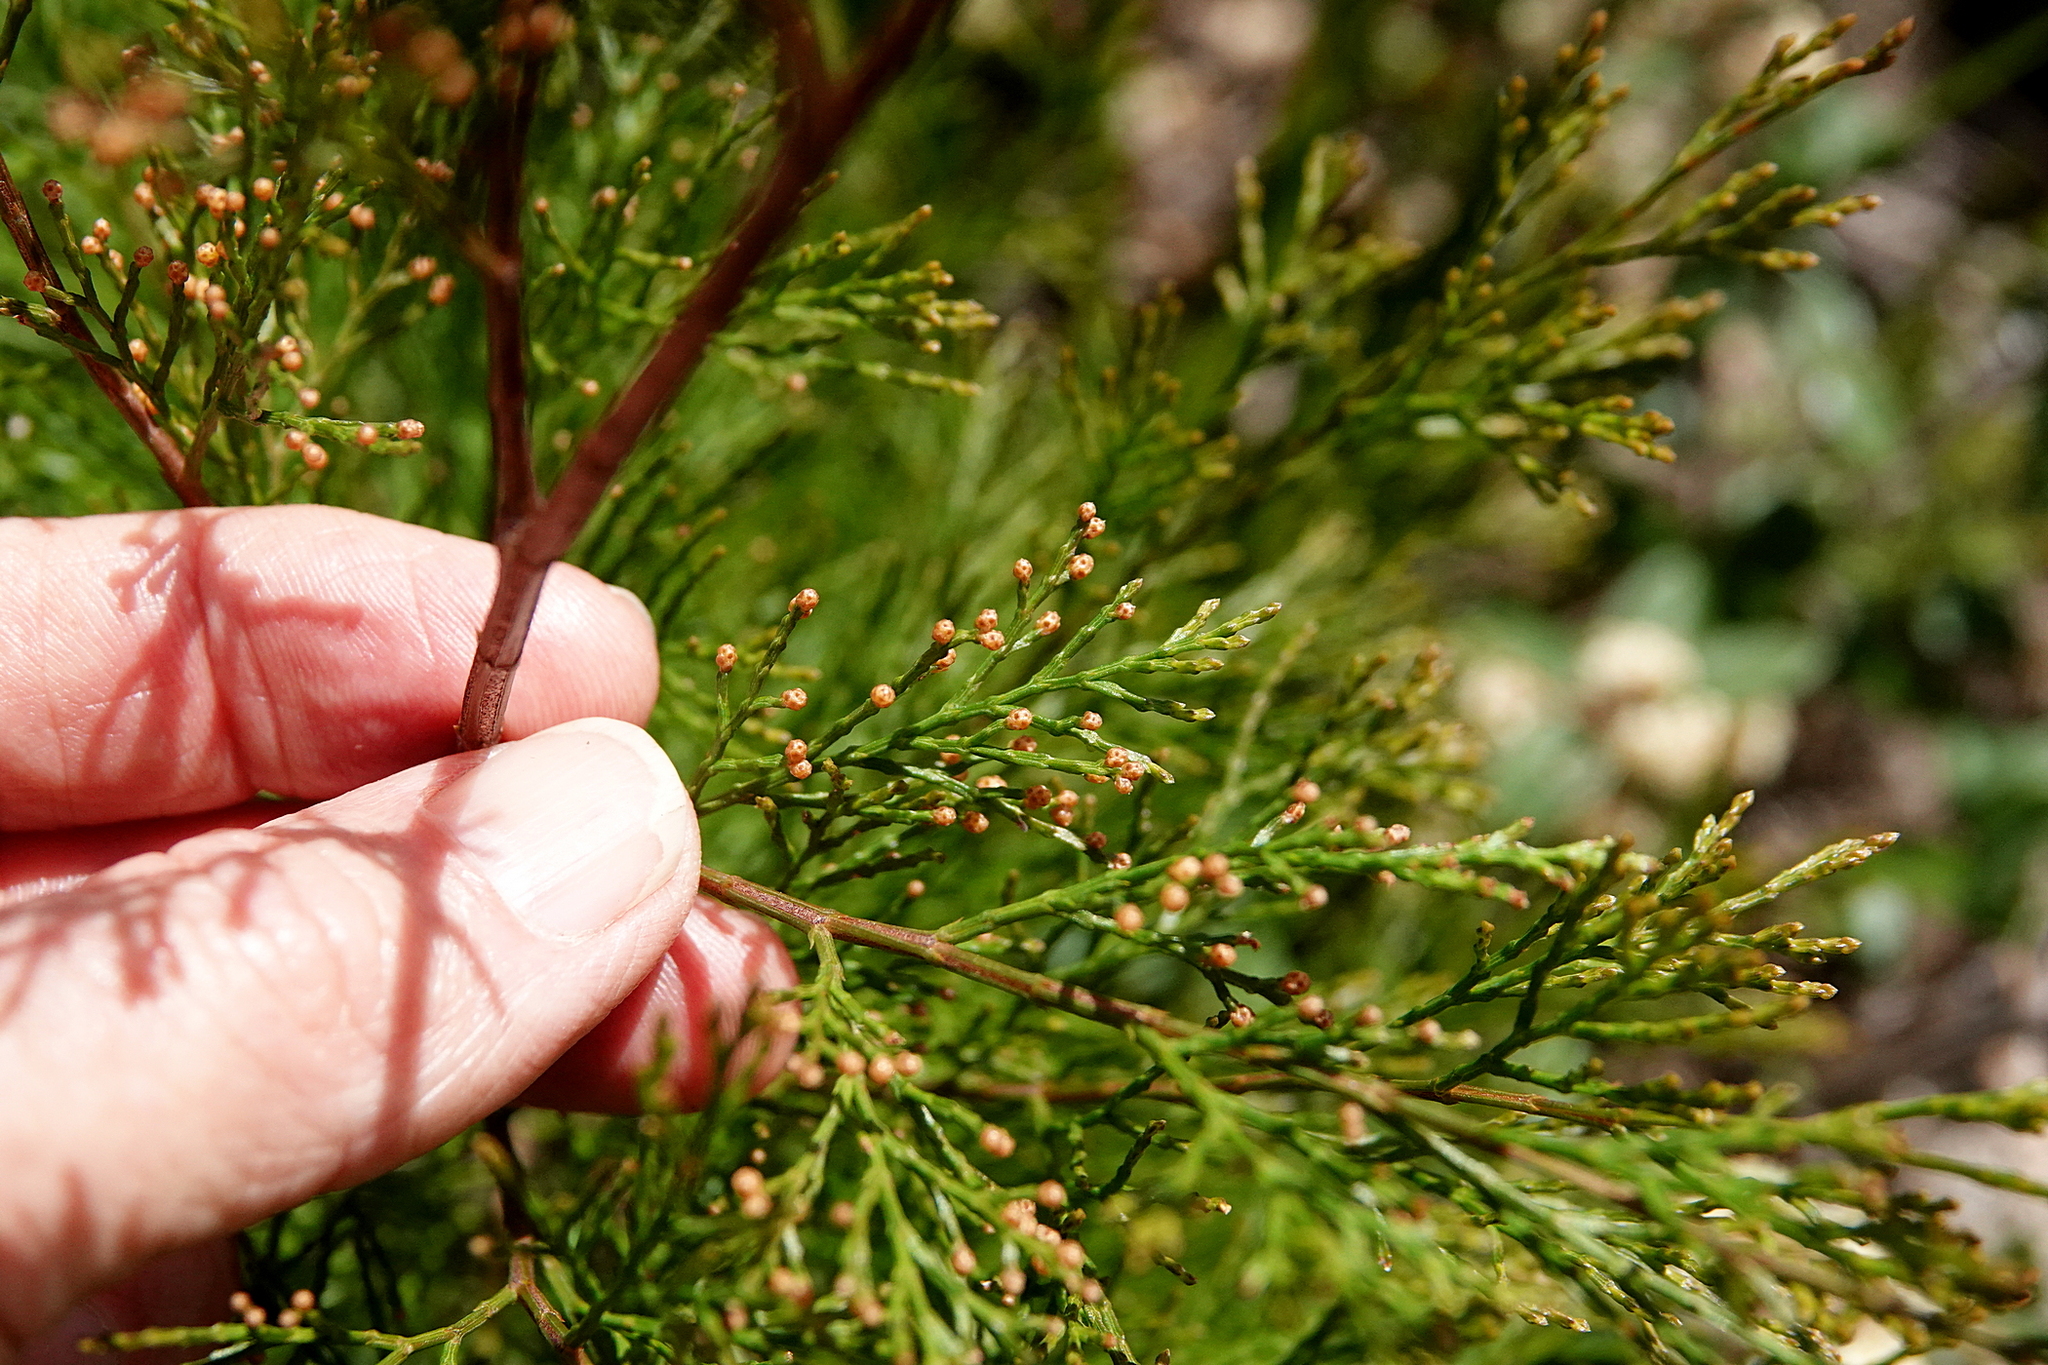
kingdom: Plantae
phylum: Tracheophyta
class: Pinopsida
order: Pinales
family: Cupressaceae
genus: Callitris
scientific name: Callitris rhomboidea
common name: Illawara mountain pine
